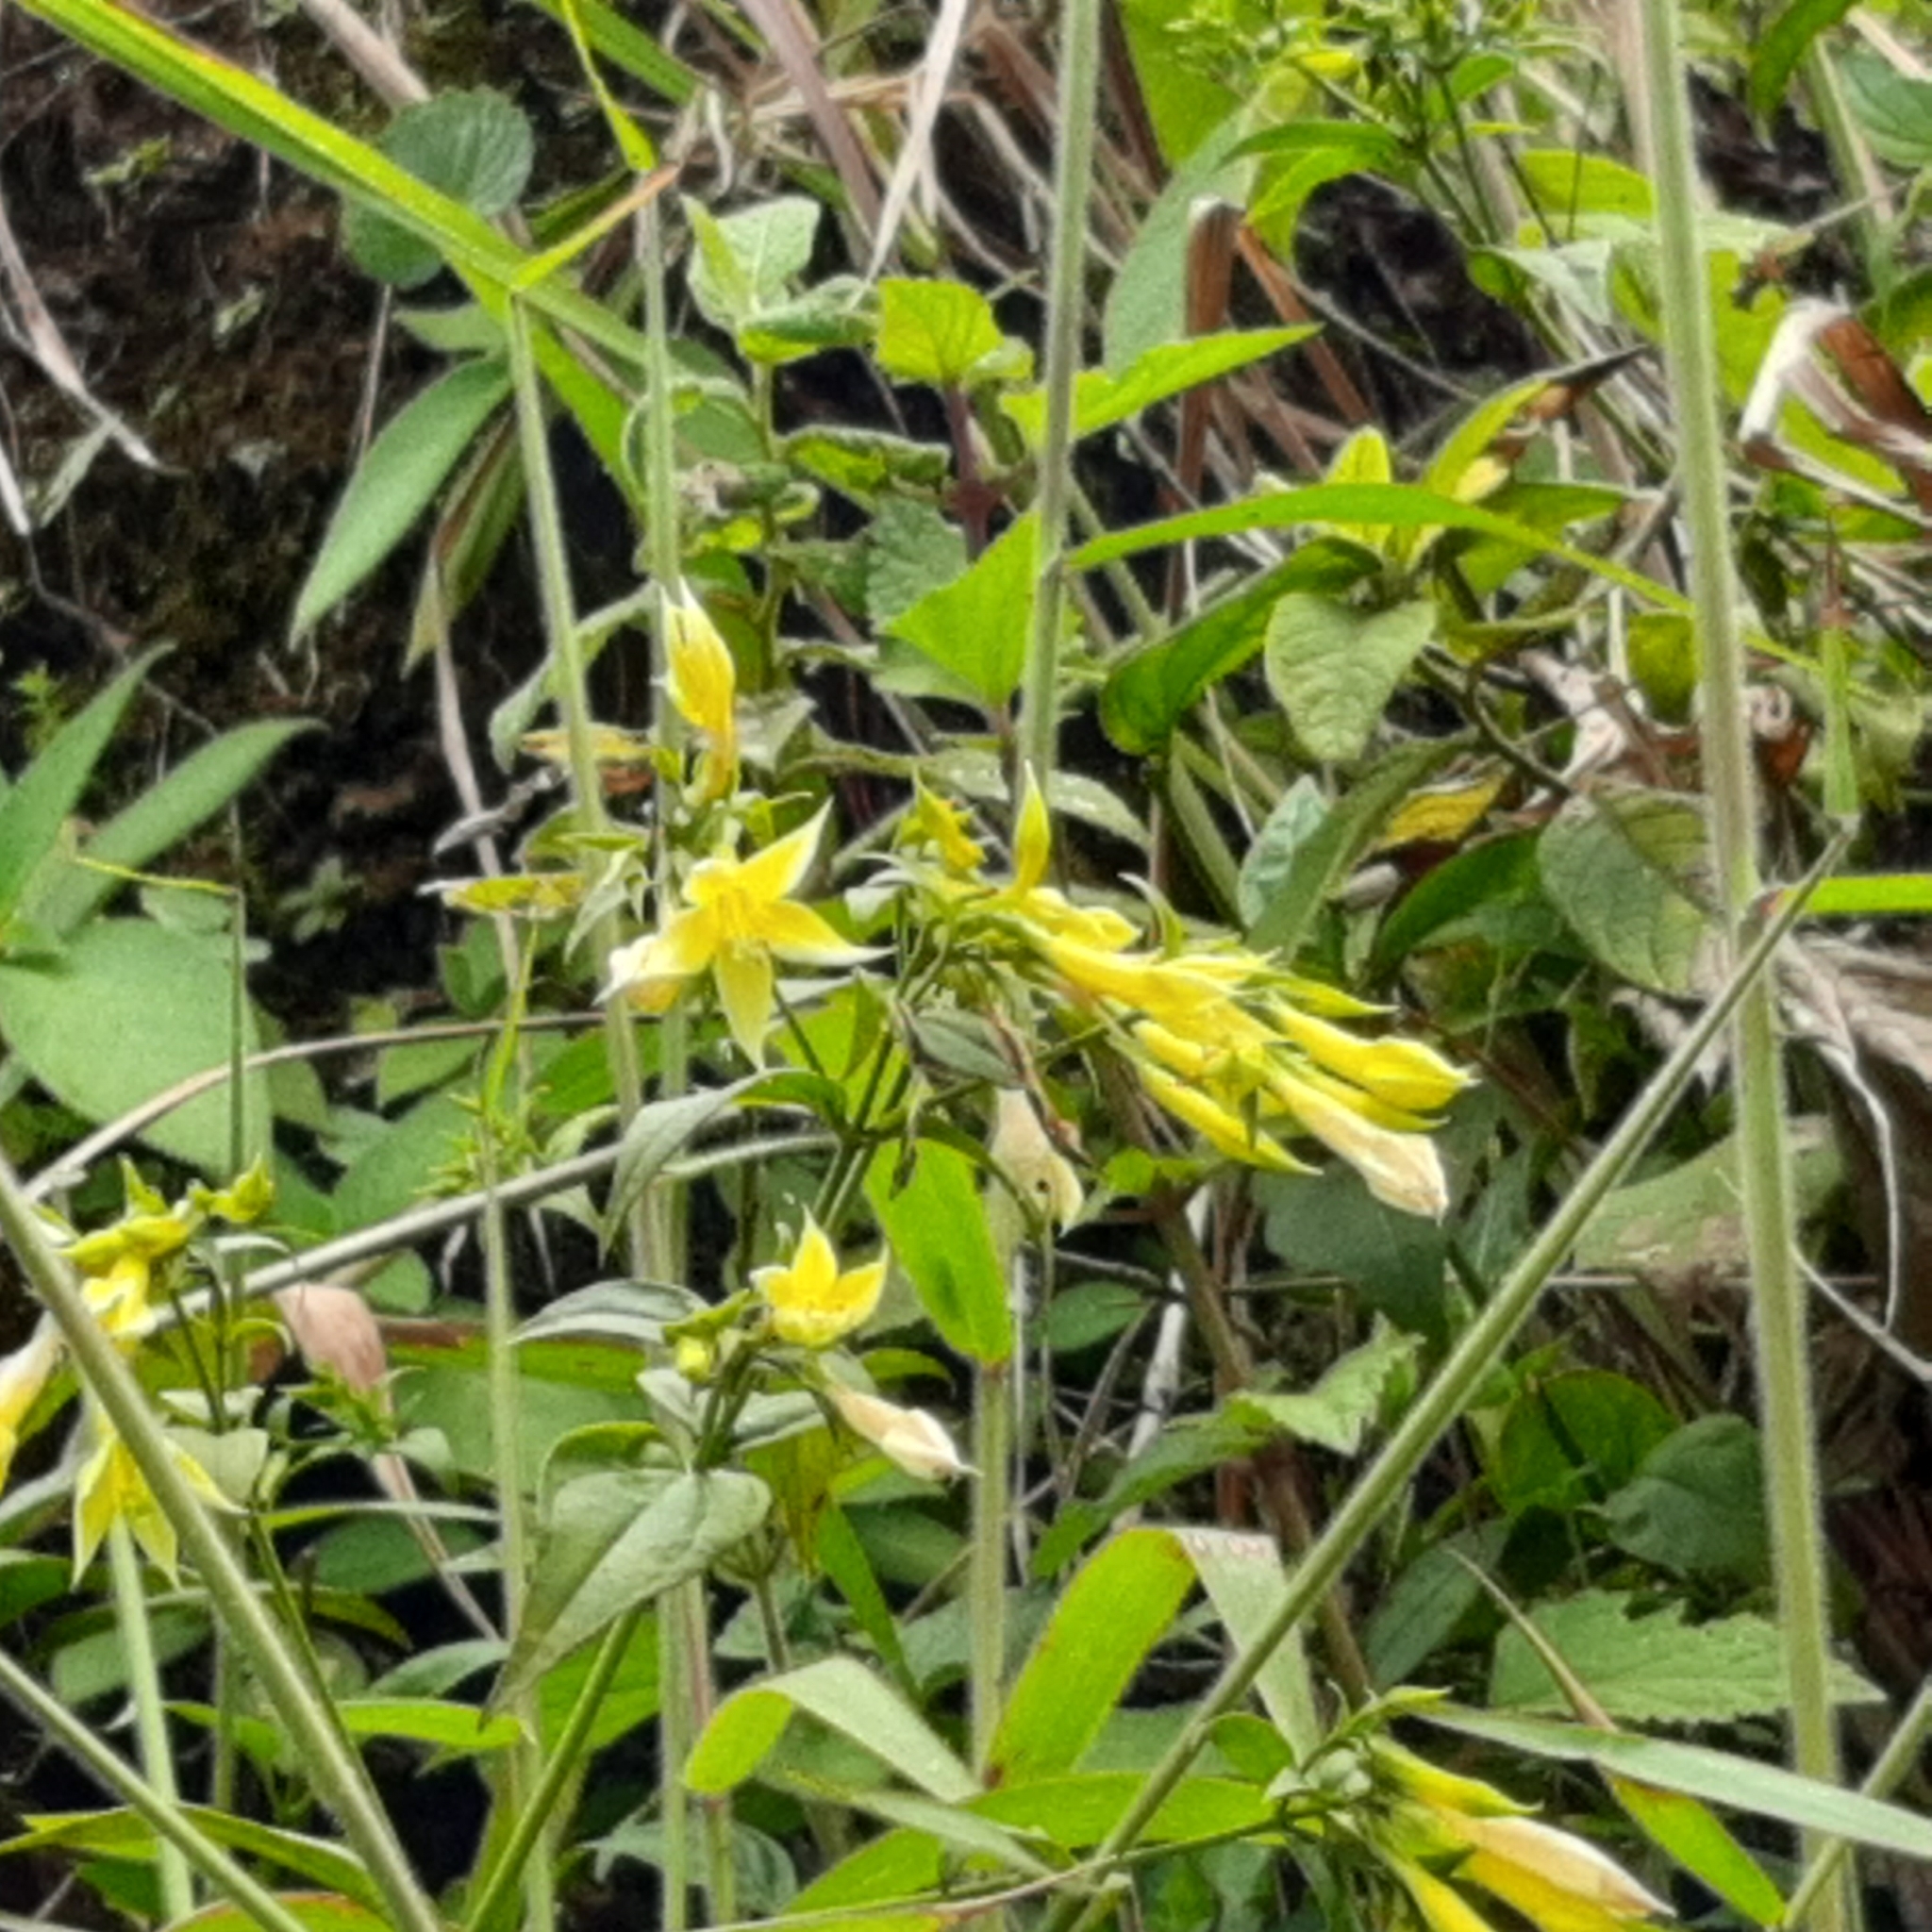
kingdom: Plantae
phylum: Tracheophyta
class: Magnoliopsida
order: Gentianales
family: Gentianaceae
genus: Lisianthus
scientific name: Lisianthus seemannii
